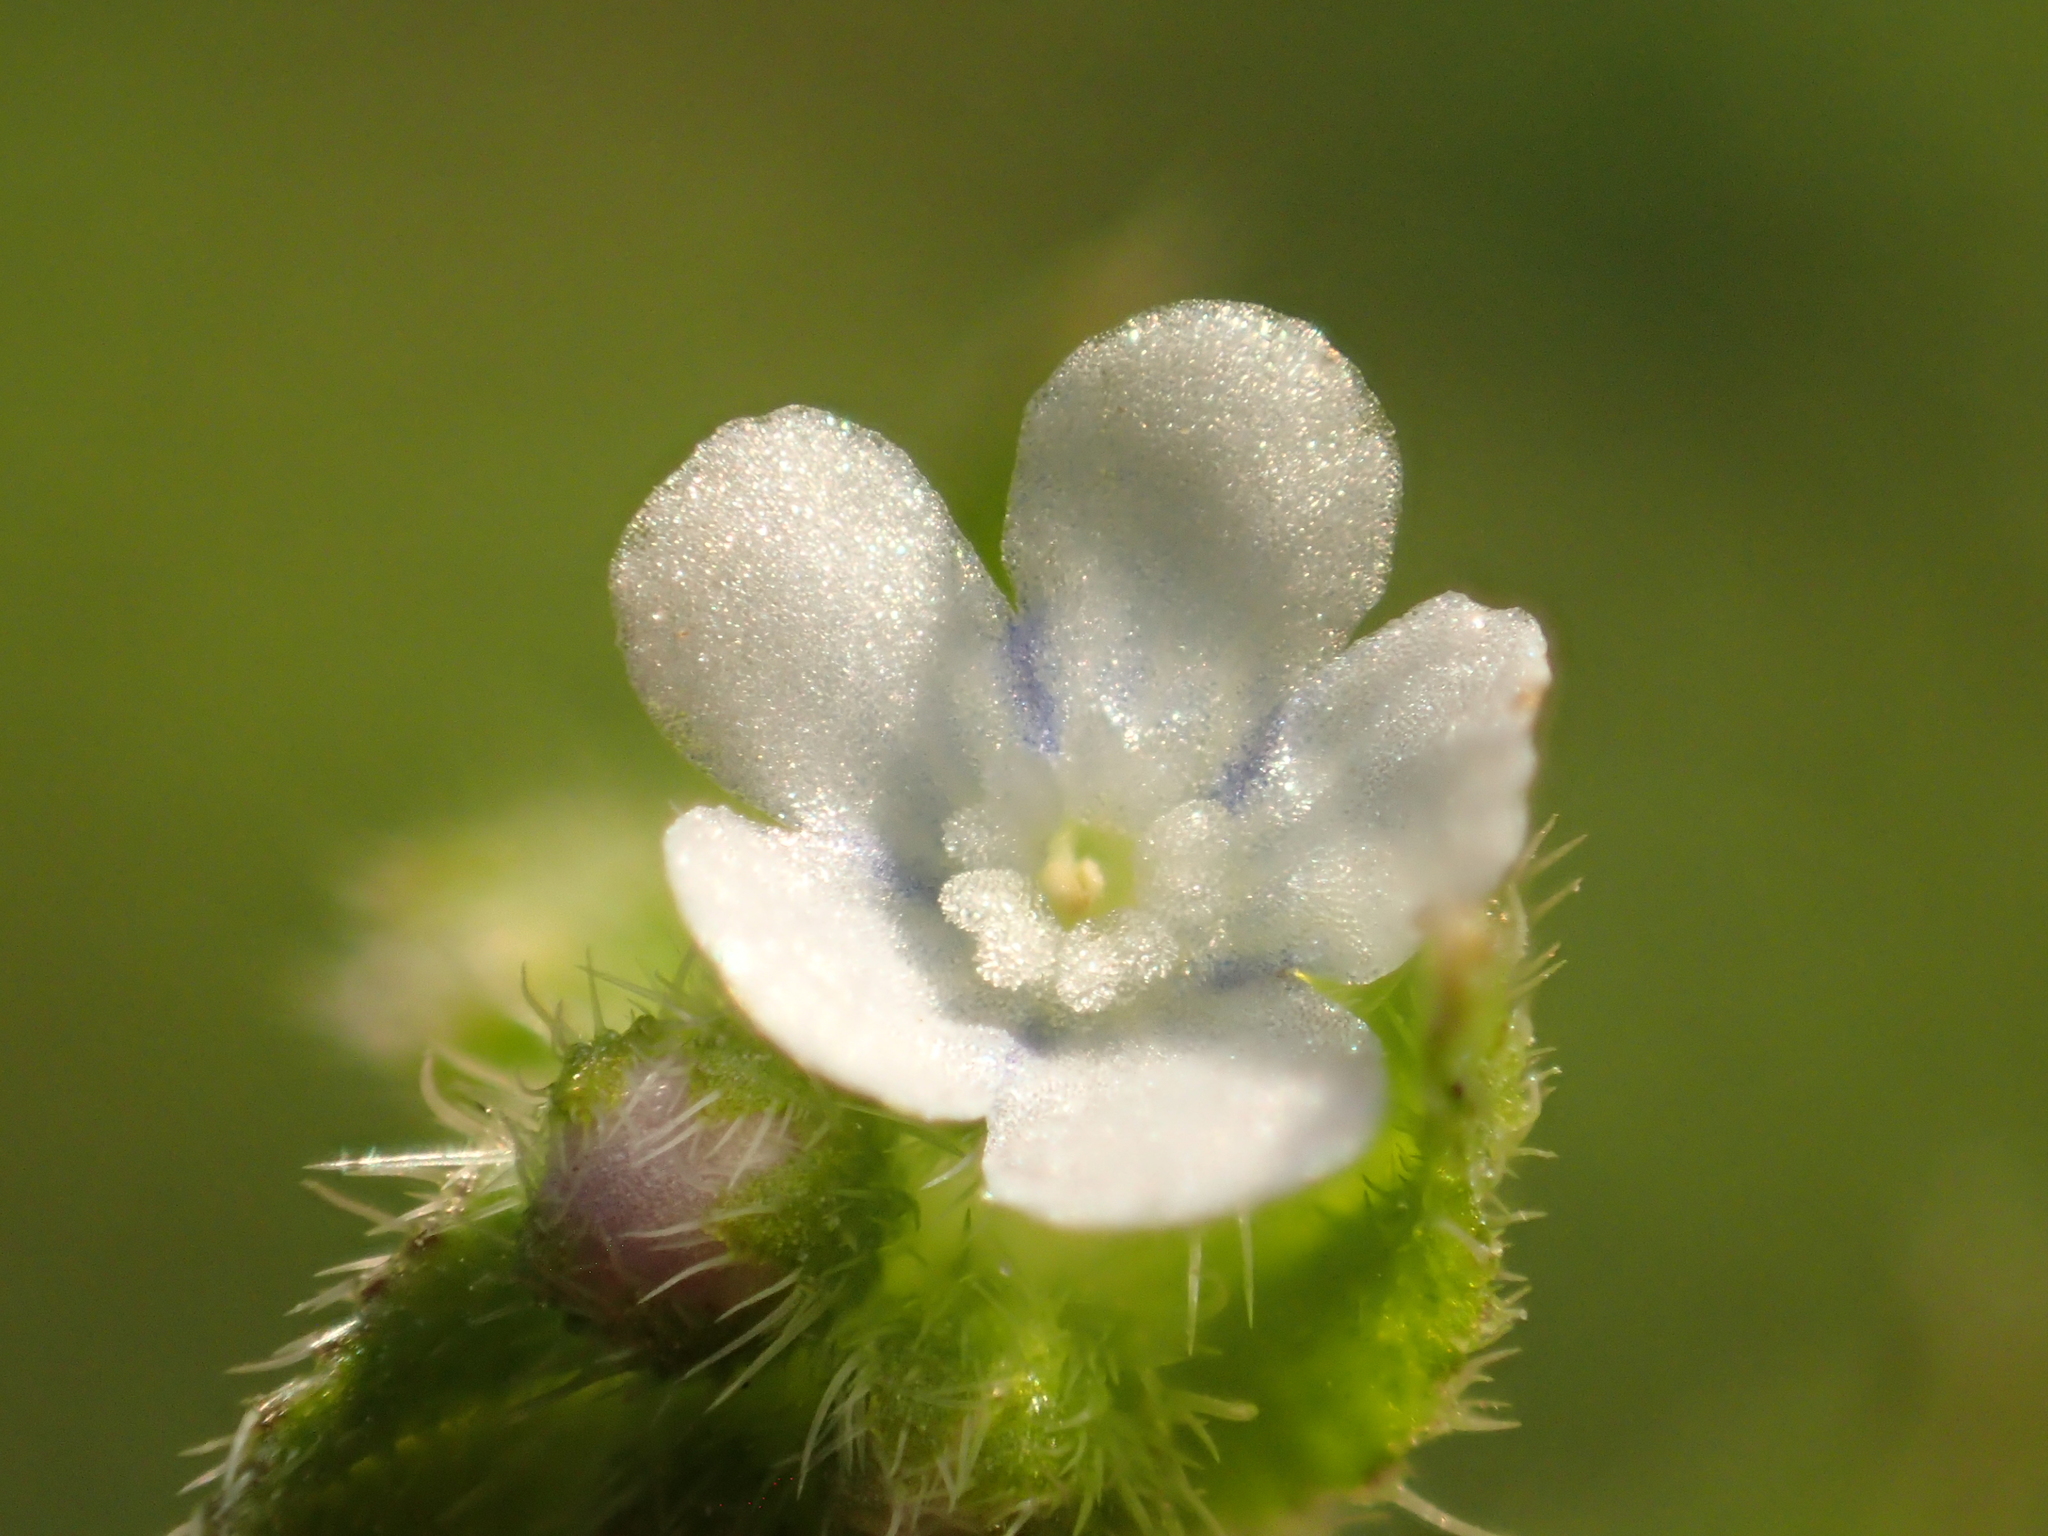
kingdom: Plantae
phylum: Tracheophyta
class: Magnoliopsida
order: Boraginales
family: Boraginaceae
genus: Bothriospermum
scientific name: Bothriospermum zeylanicum
